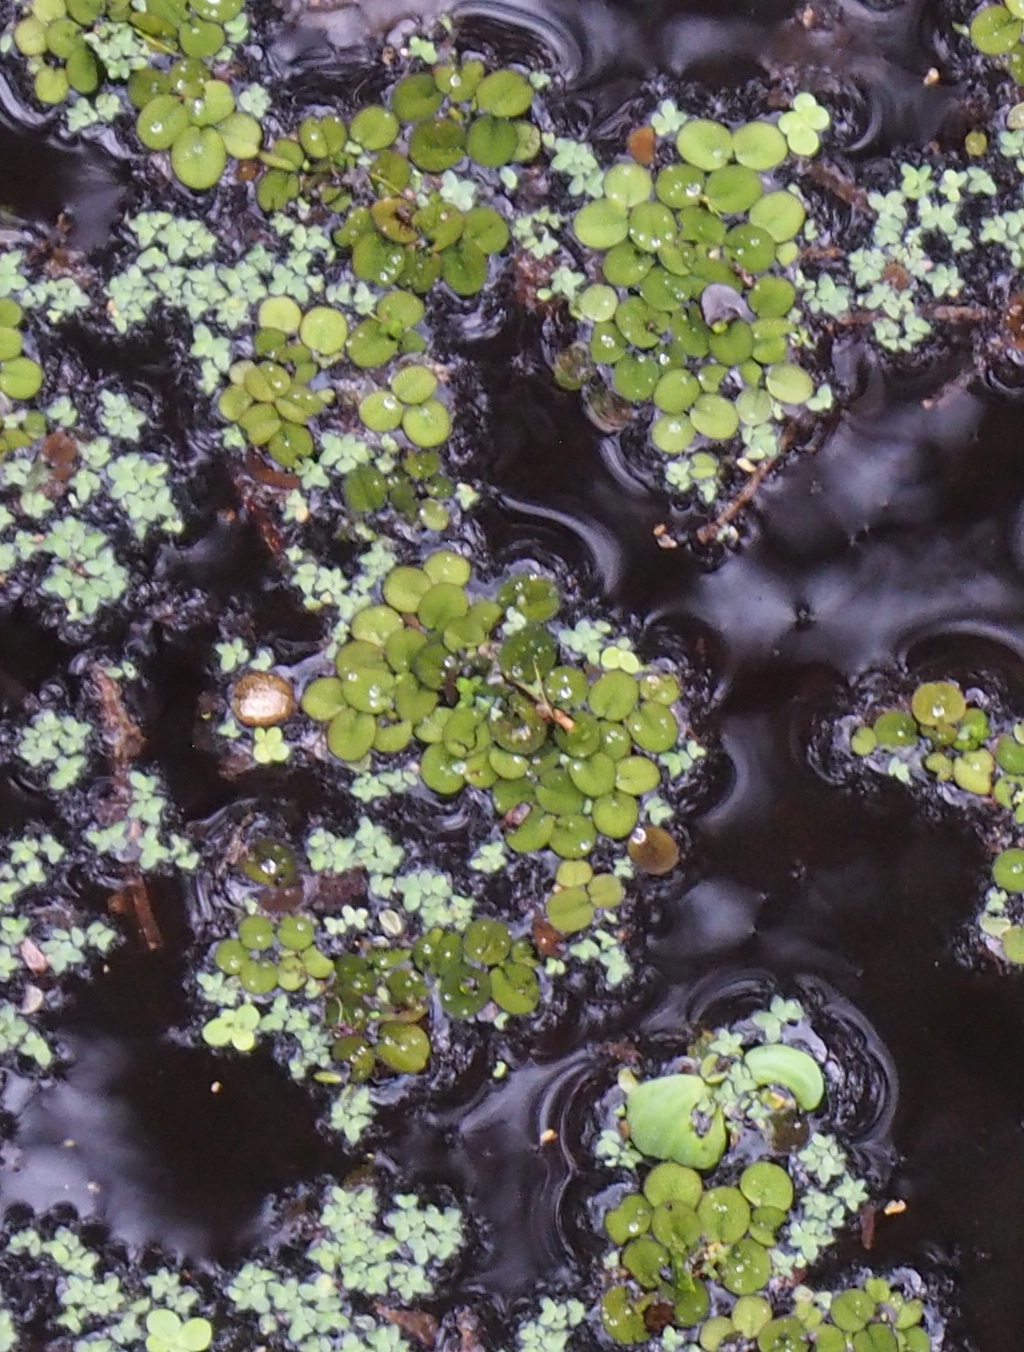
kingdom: Plantae
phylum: Tracheophyta
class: Polypodiopsida
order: Salviniales
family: Salviniaceae
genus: Salvinia
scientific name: Salvinia minima
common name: Water spangles
